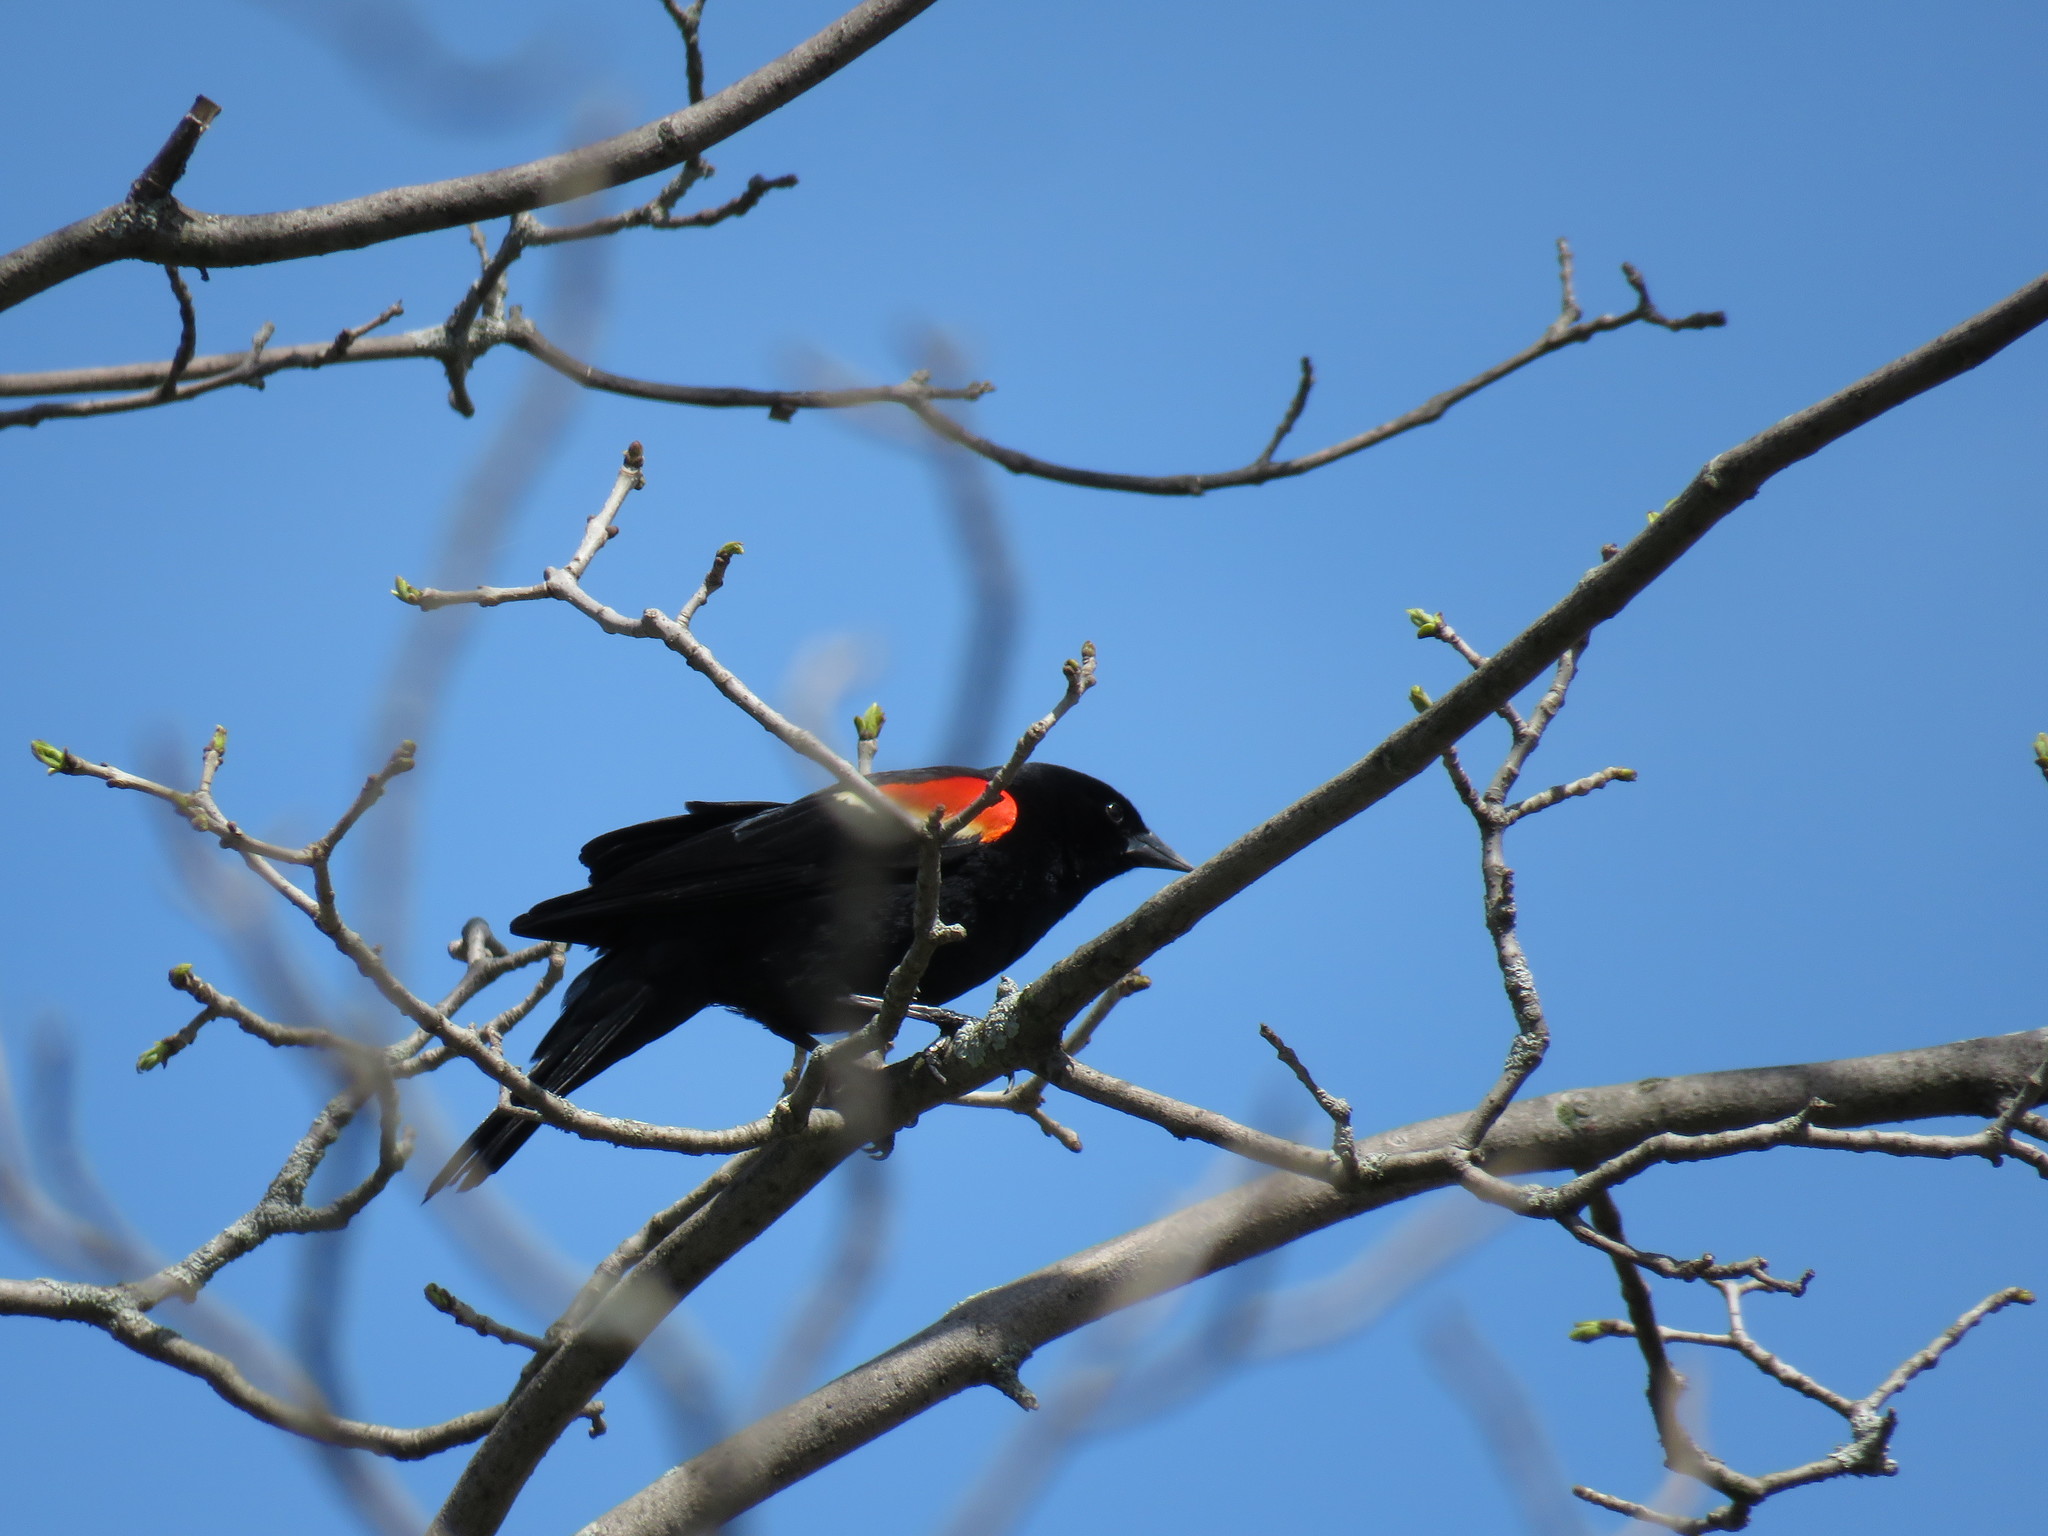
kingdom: Animalia
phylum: Chordata
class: Aves
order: Passeriformes
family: Icteridae
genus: Agelaius
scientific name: Agelaius phoeniceus
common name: Red-winged blackbird
